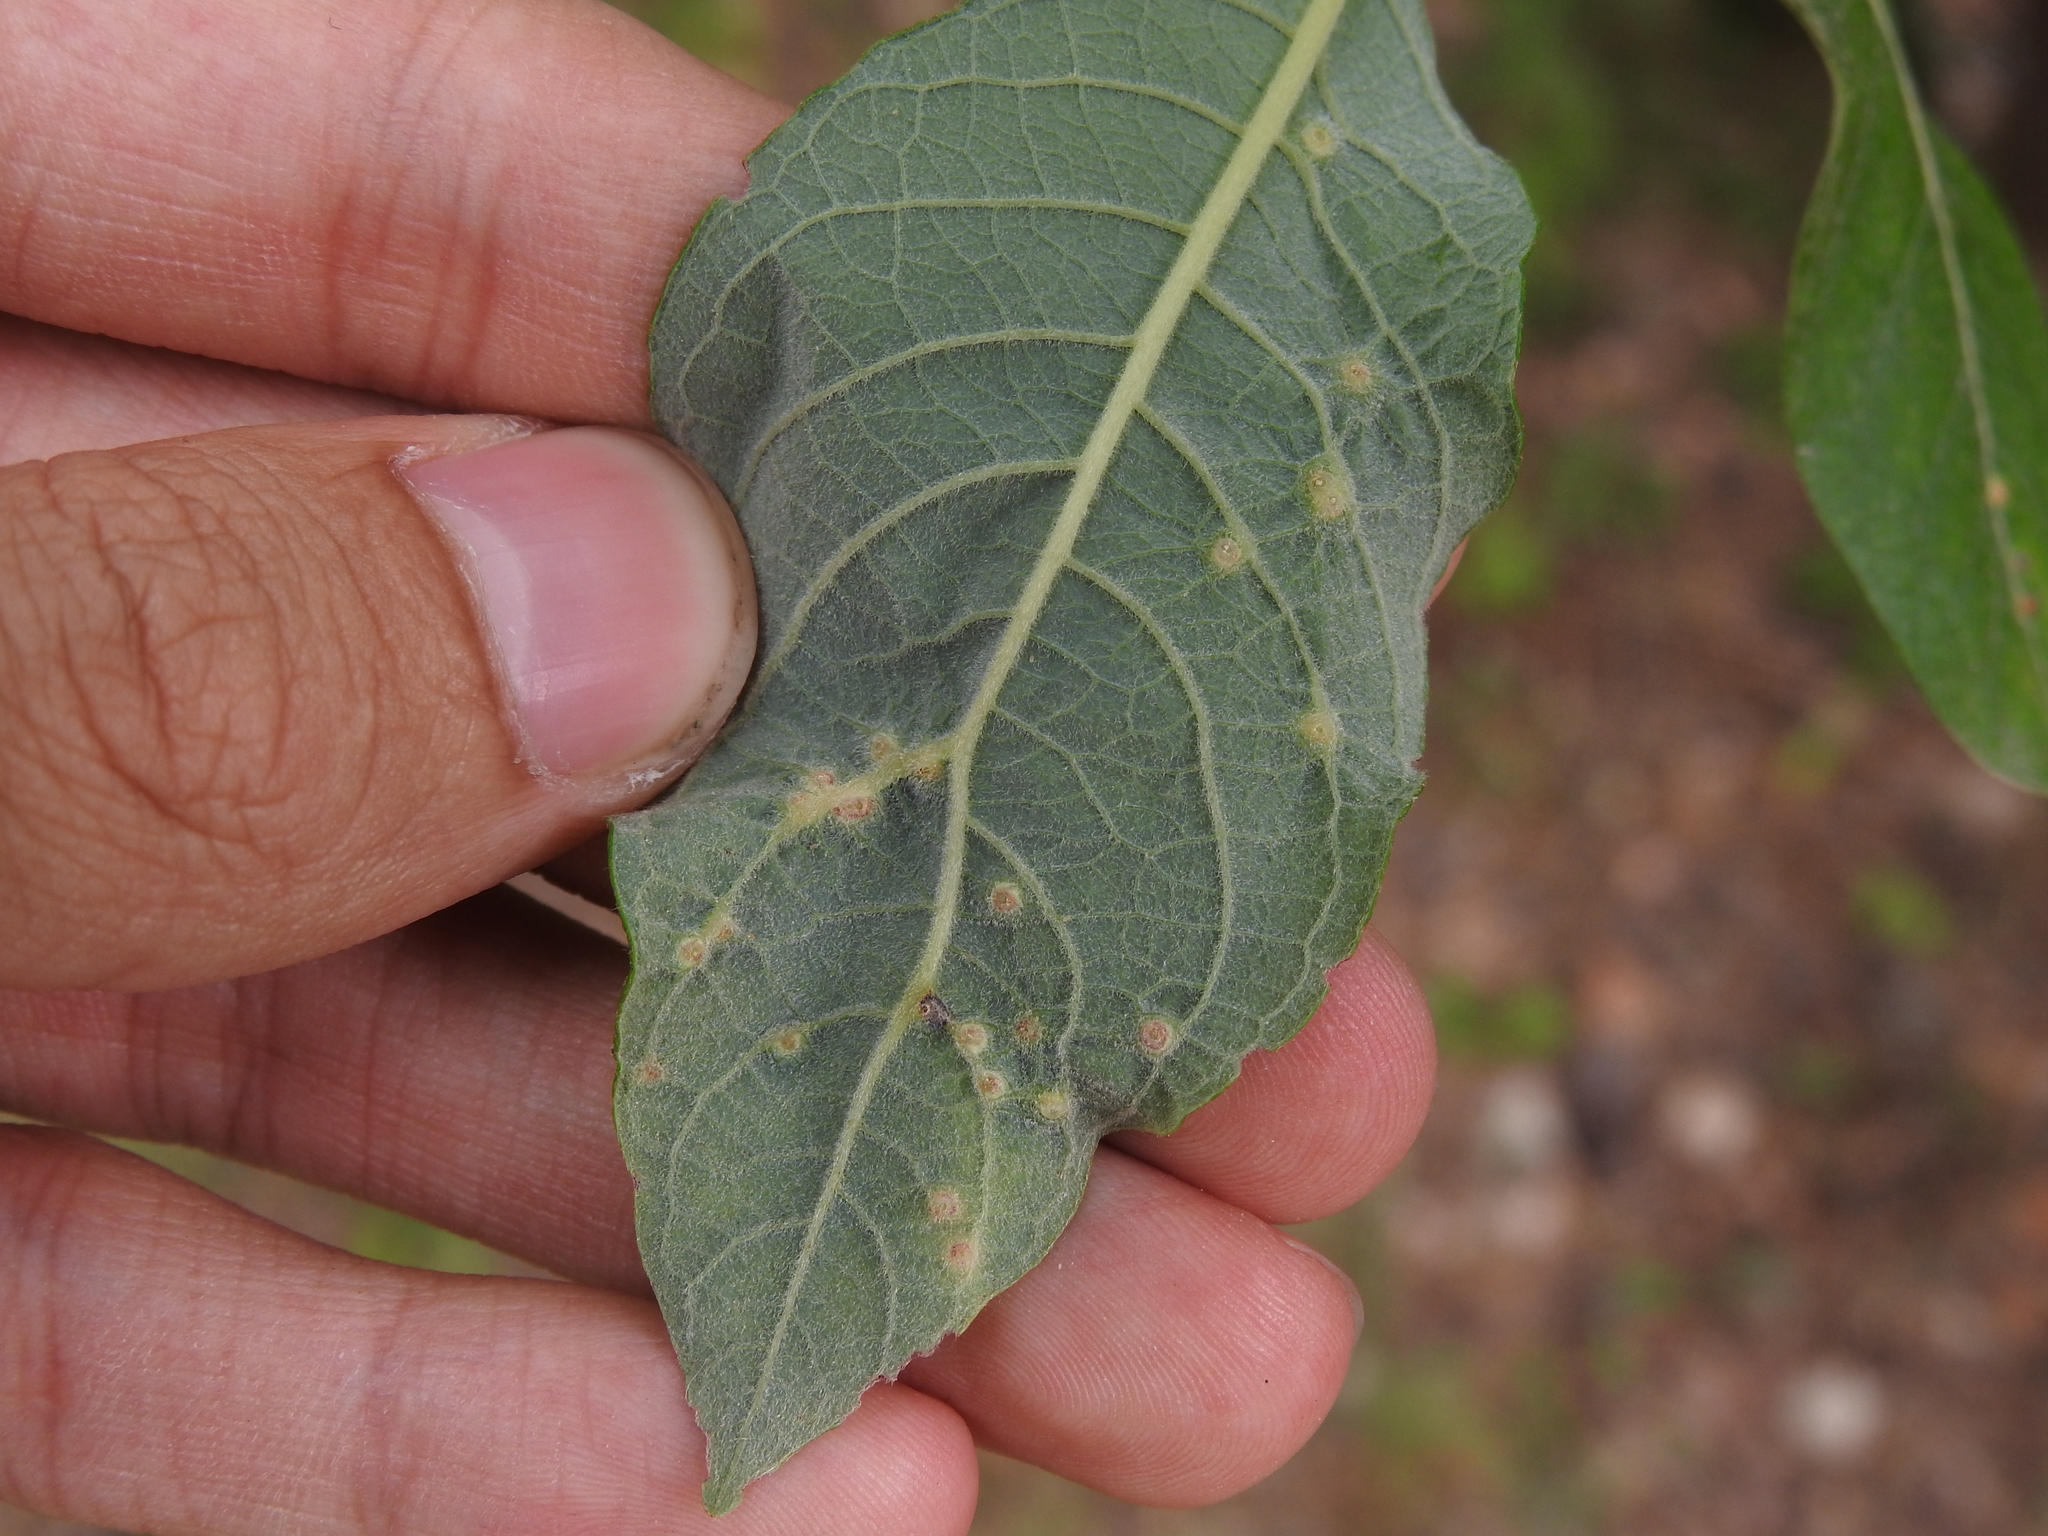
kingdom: Animalia
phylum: Arthropoda
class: Insecta
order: Diptera
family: Cecidomyiidae
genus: Iteomyia
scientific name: Iteomyia capreae
